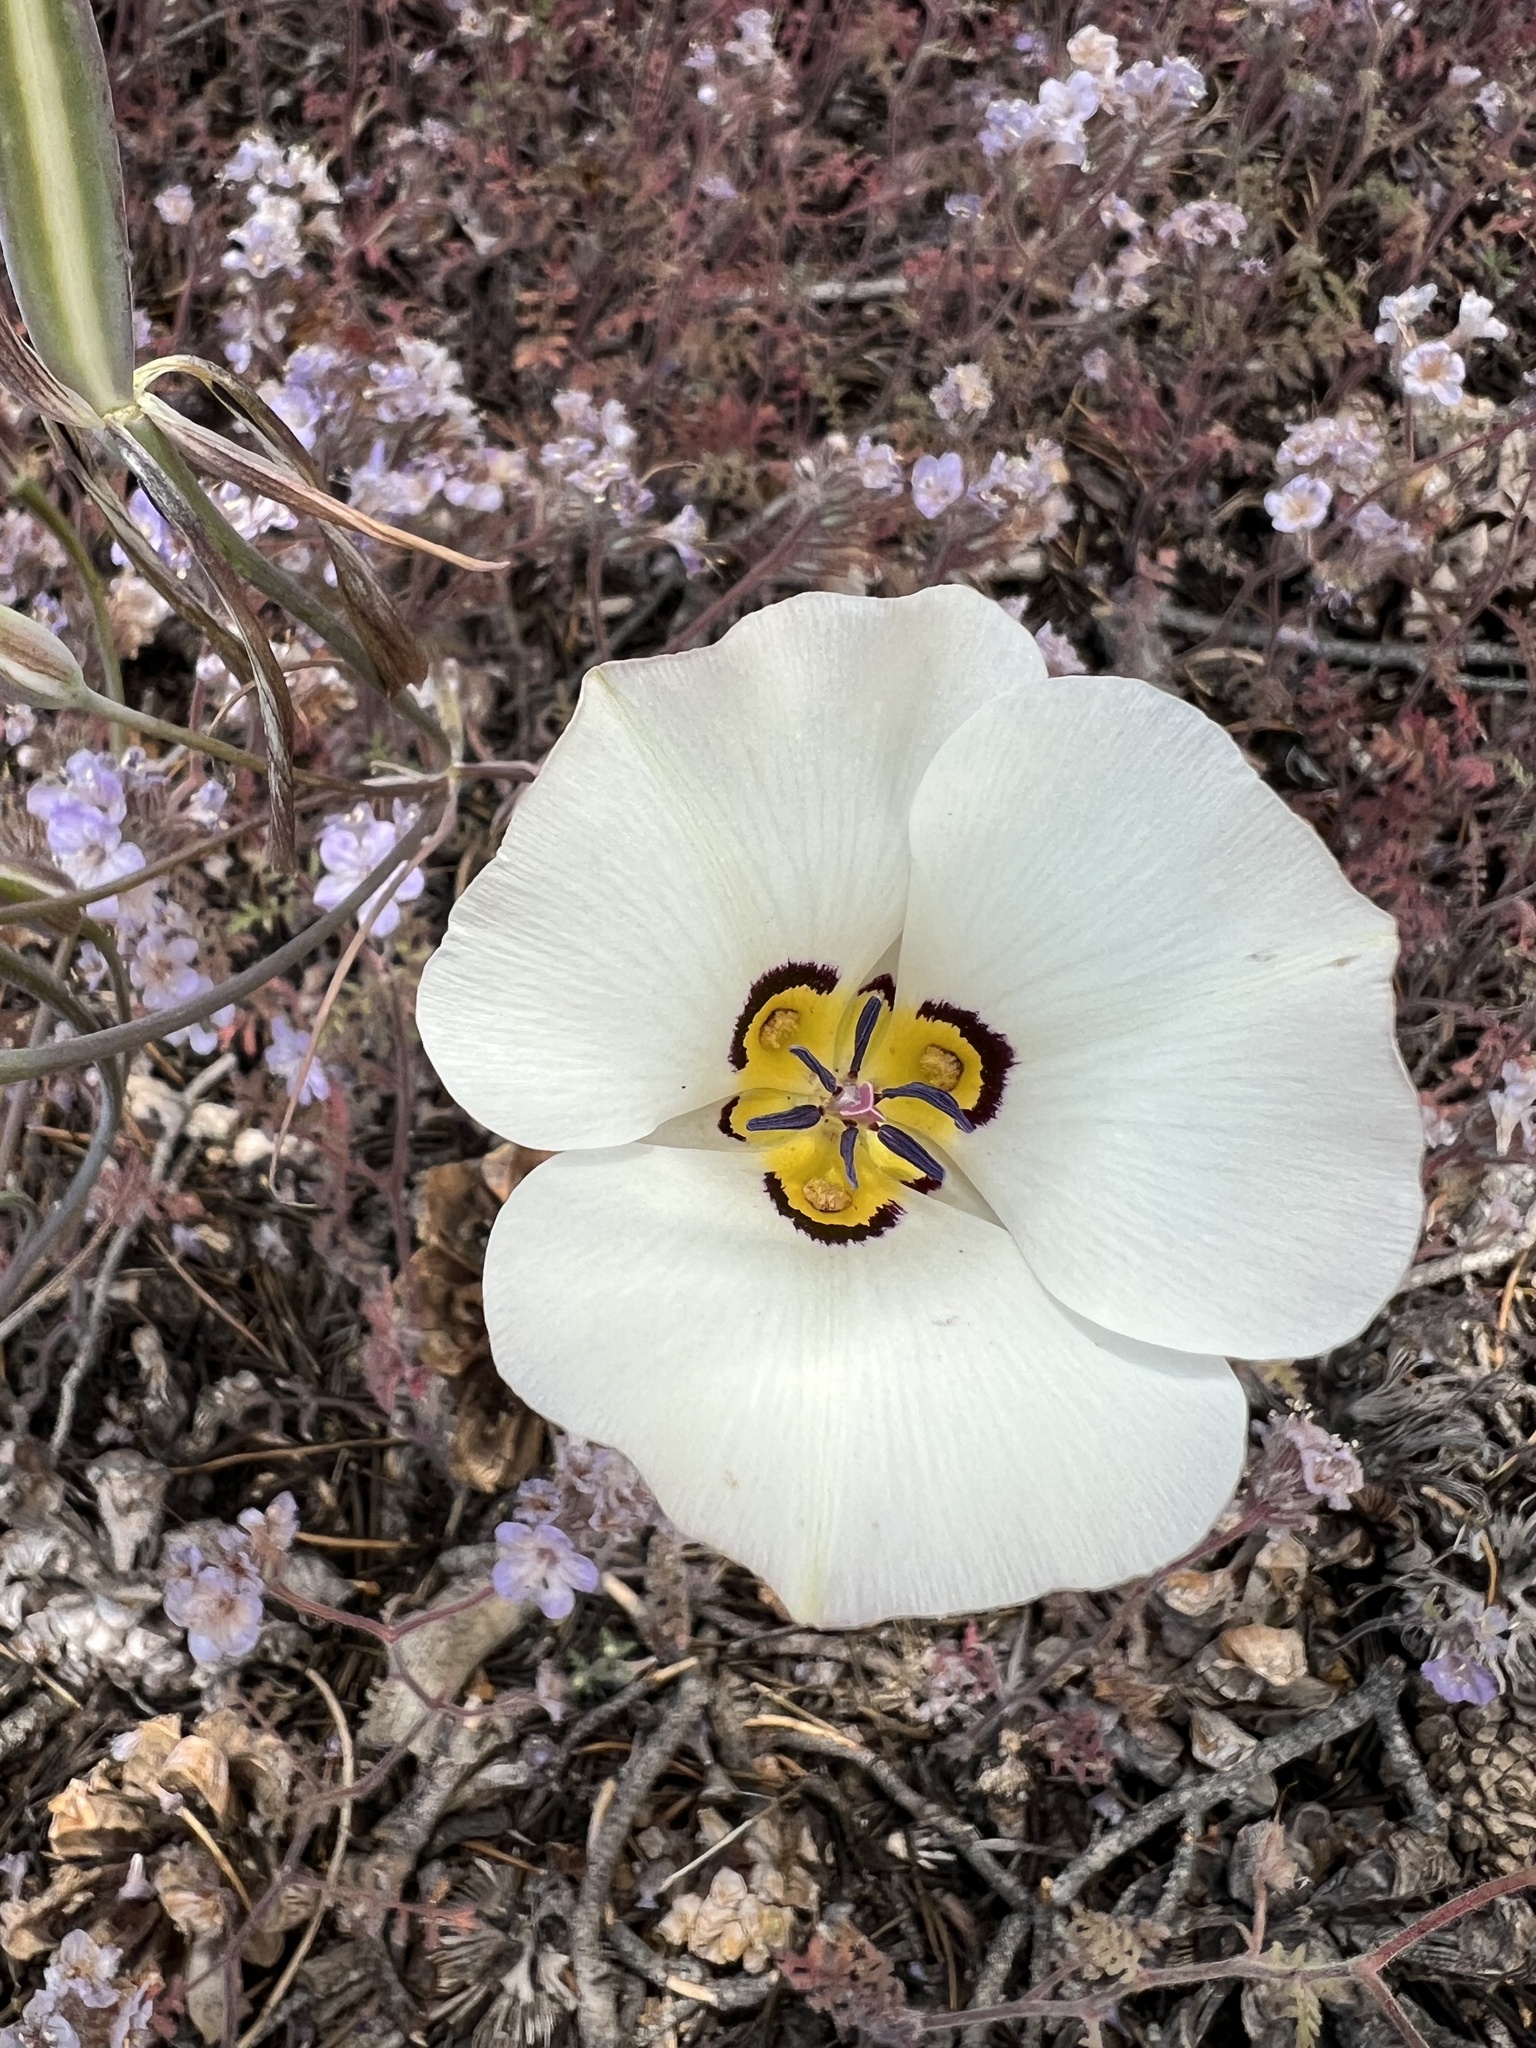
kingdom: Plantae
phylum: Tracheophyta
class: Liliopsida
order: Liliales
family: Liliaceae
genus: Calochortus
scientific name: Calochortus bruneaunis
